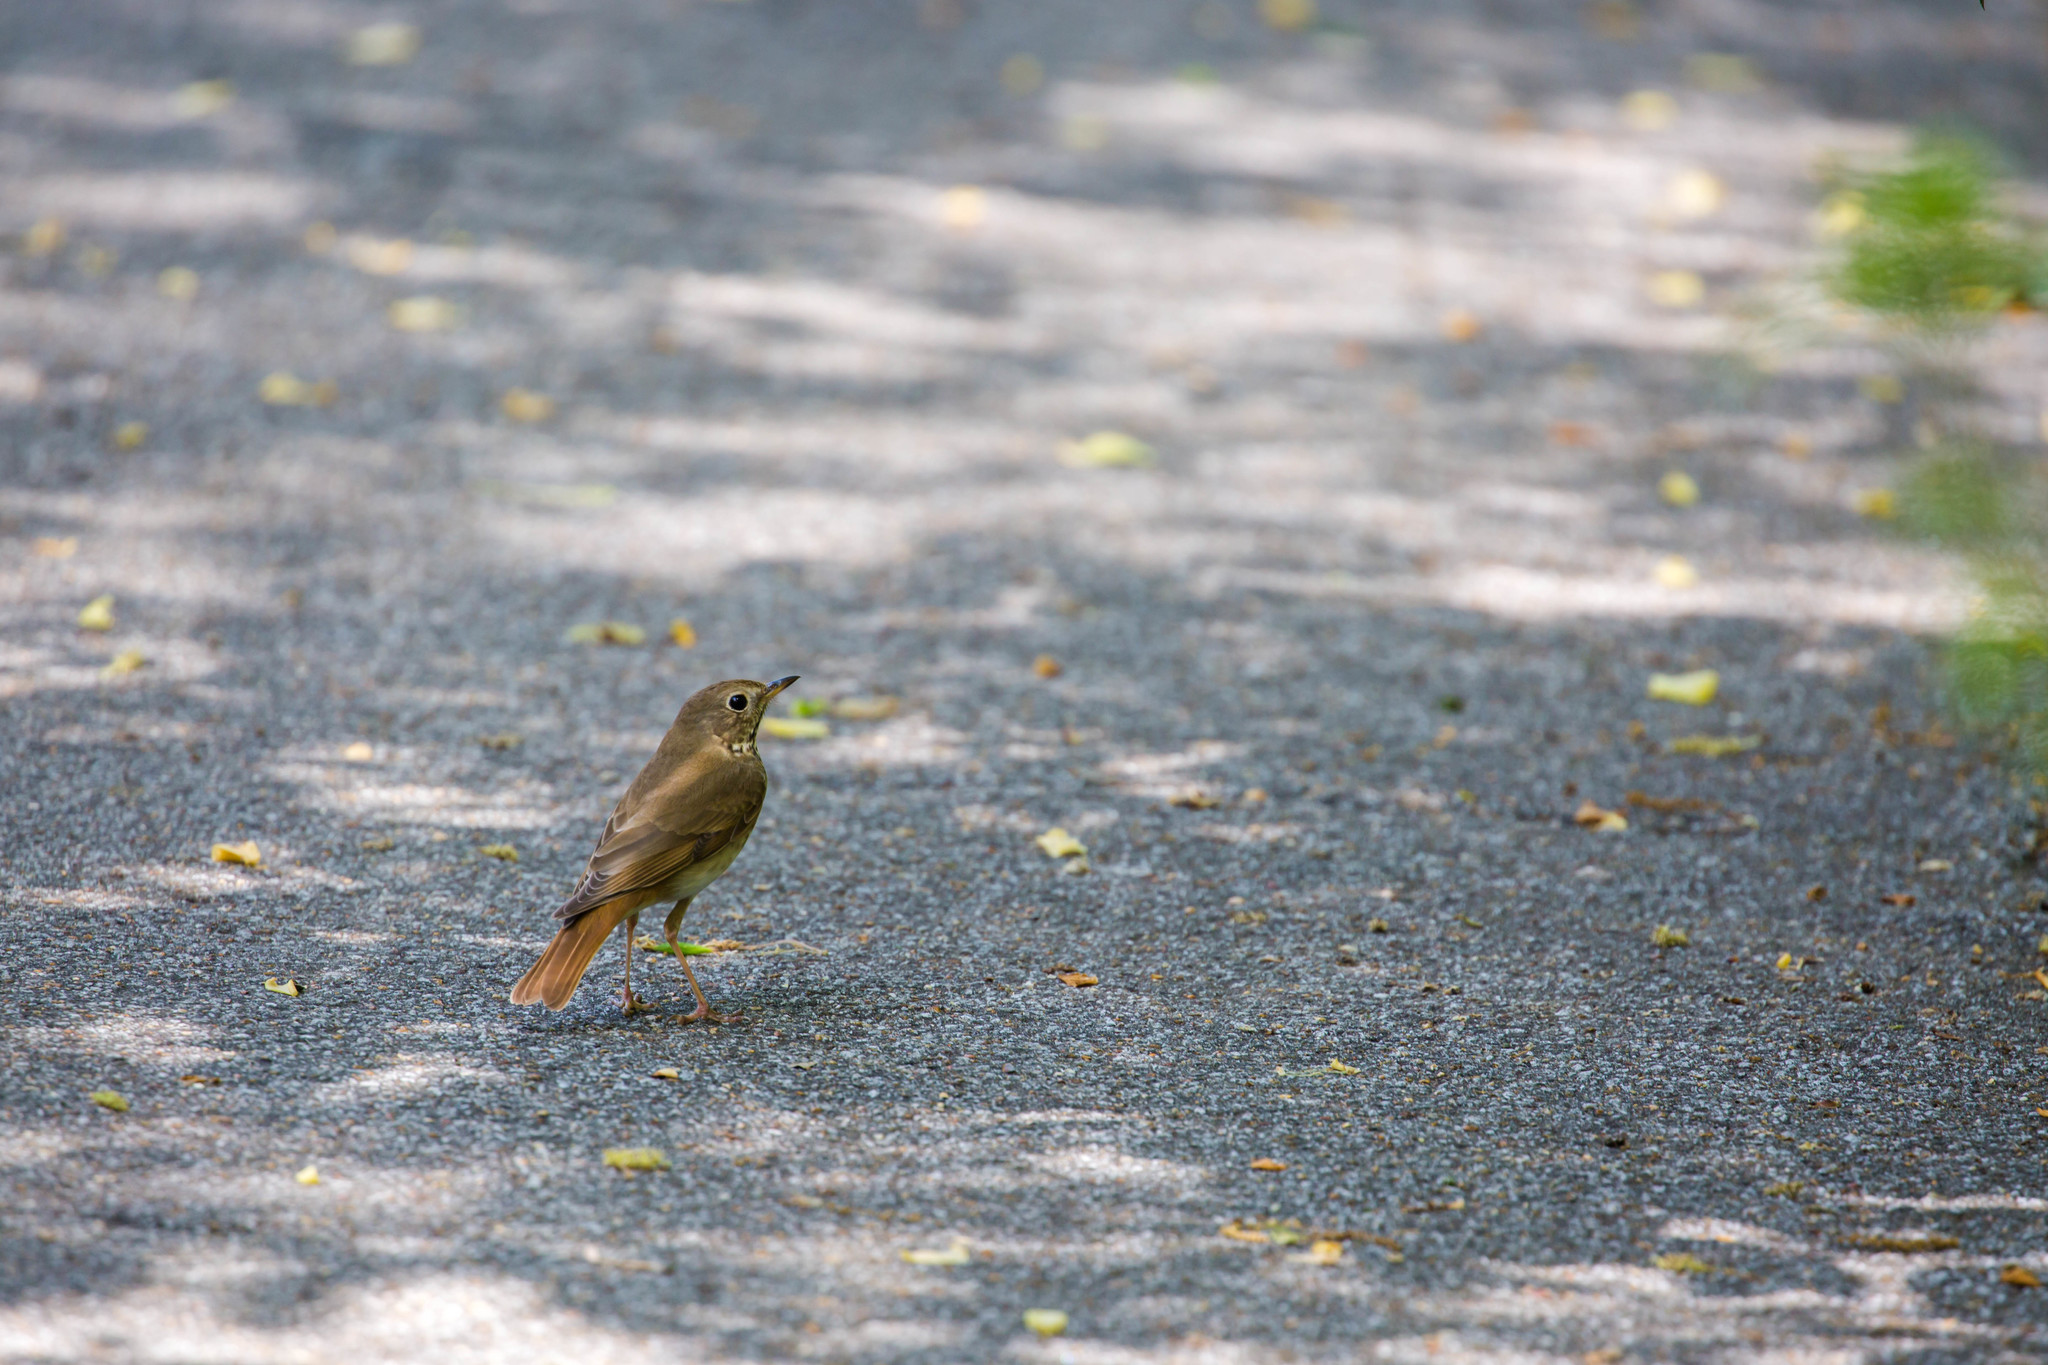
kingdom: Animalia
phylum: Chordata
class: Aves
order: Passeriformes
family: Turdidae
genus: Catharus
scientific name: Catharus guttatus
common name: Hermit thrush
